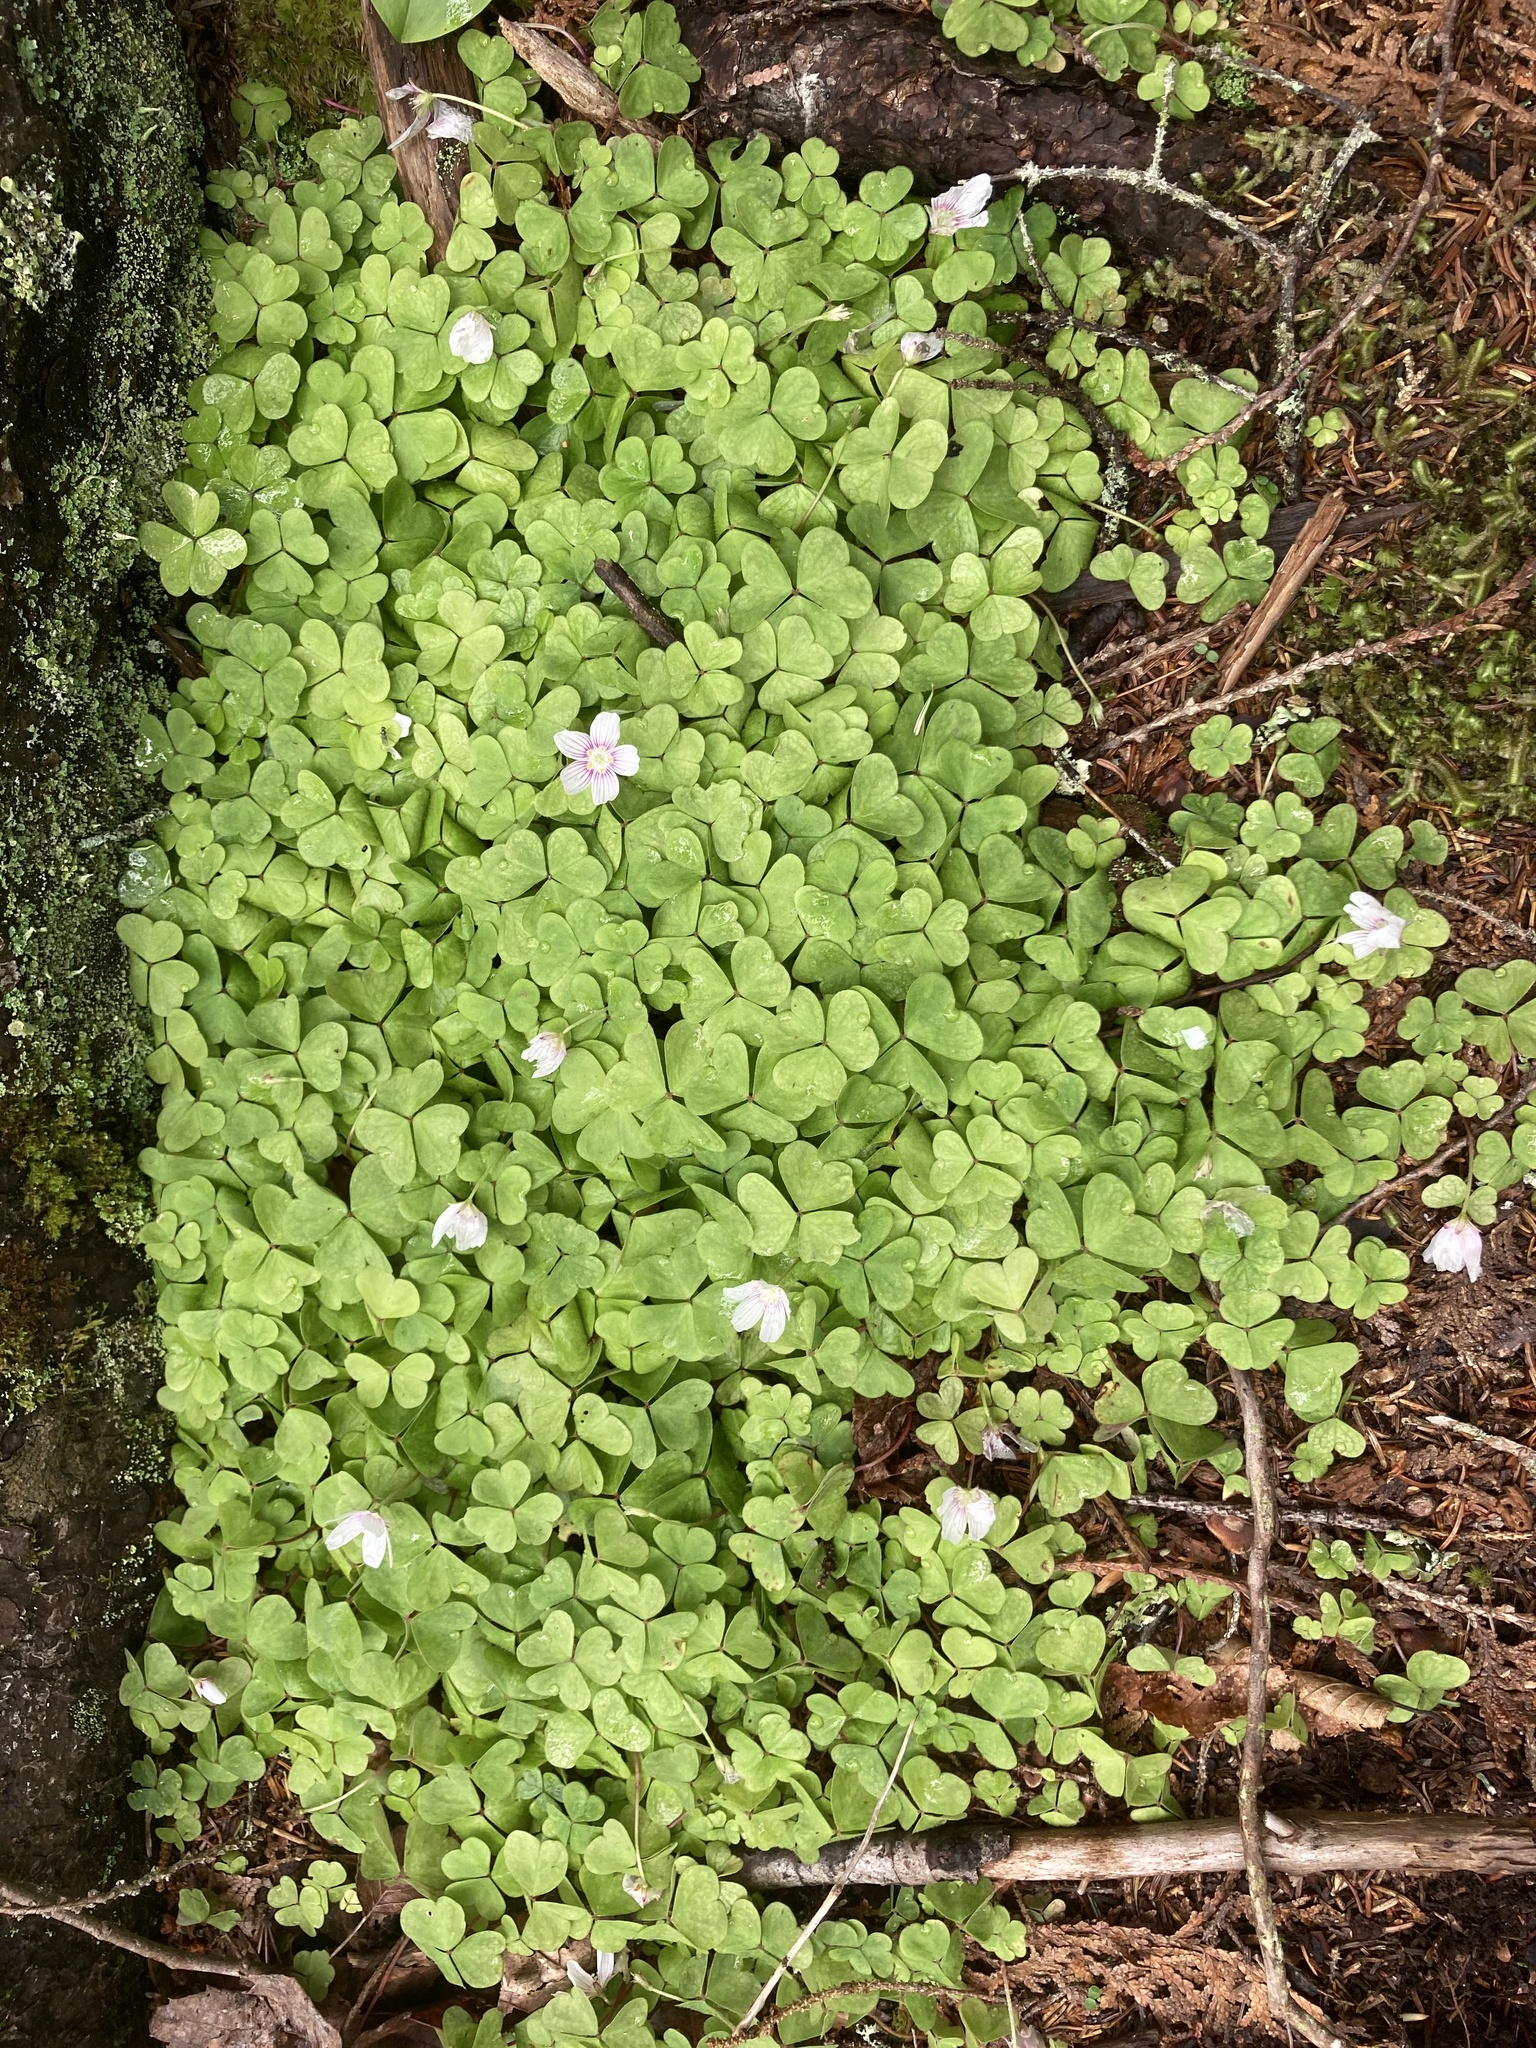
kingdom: Plantae
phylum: Tracheophyta
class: Magnoliopsida
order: Oxalidales
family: Oxalidaceae
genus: Oxalis
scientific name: Oxalis montana
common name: American wood-sorrel
